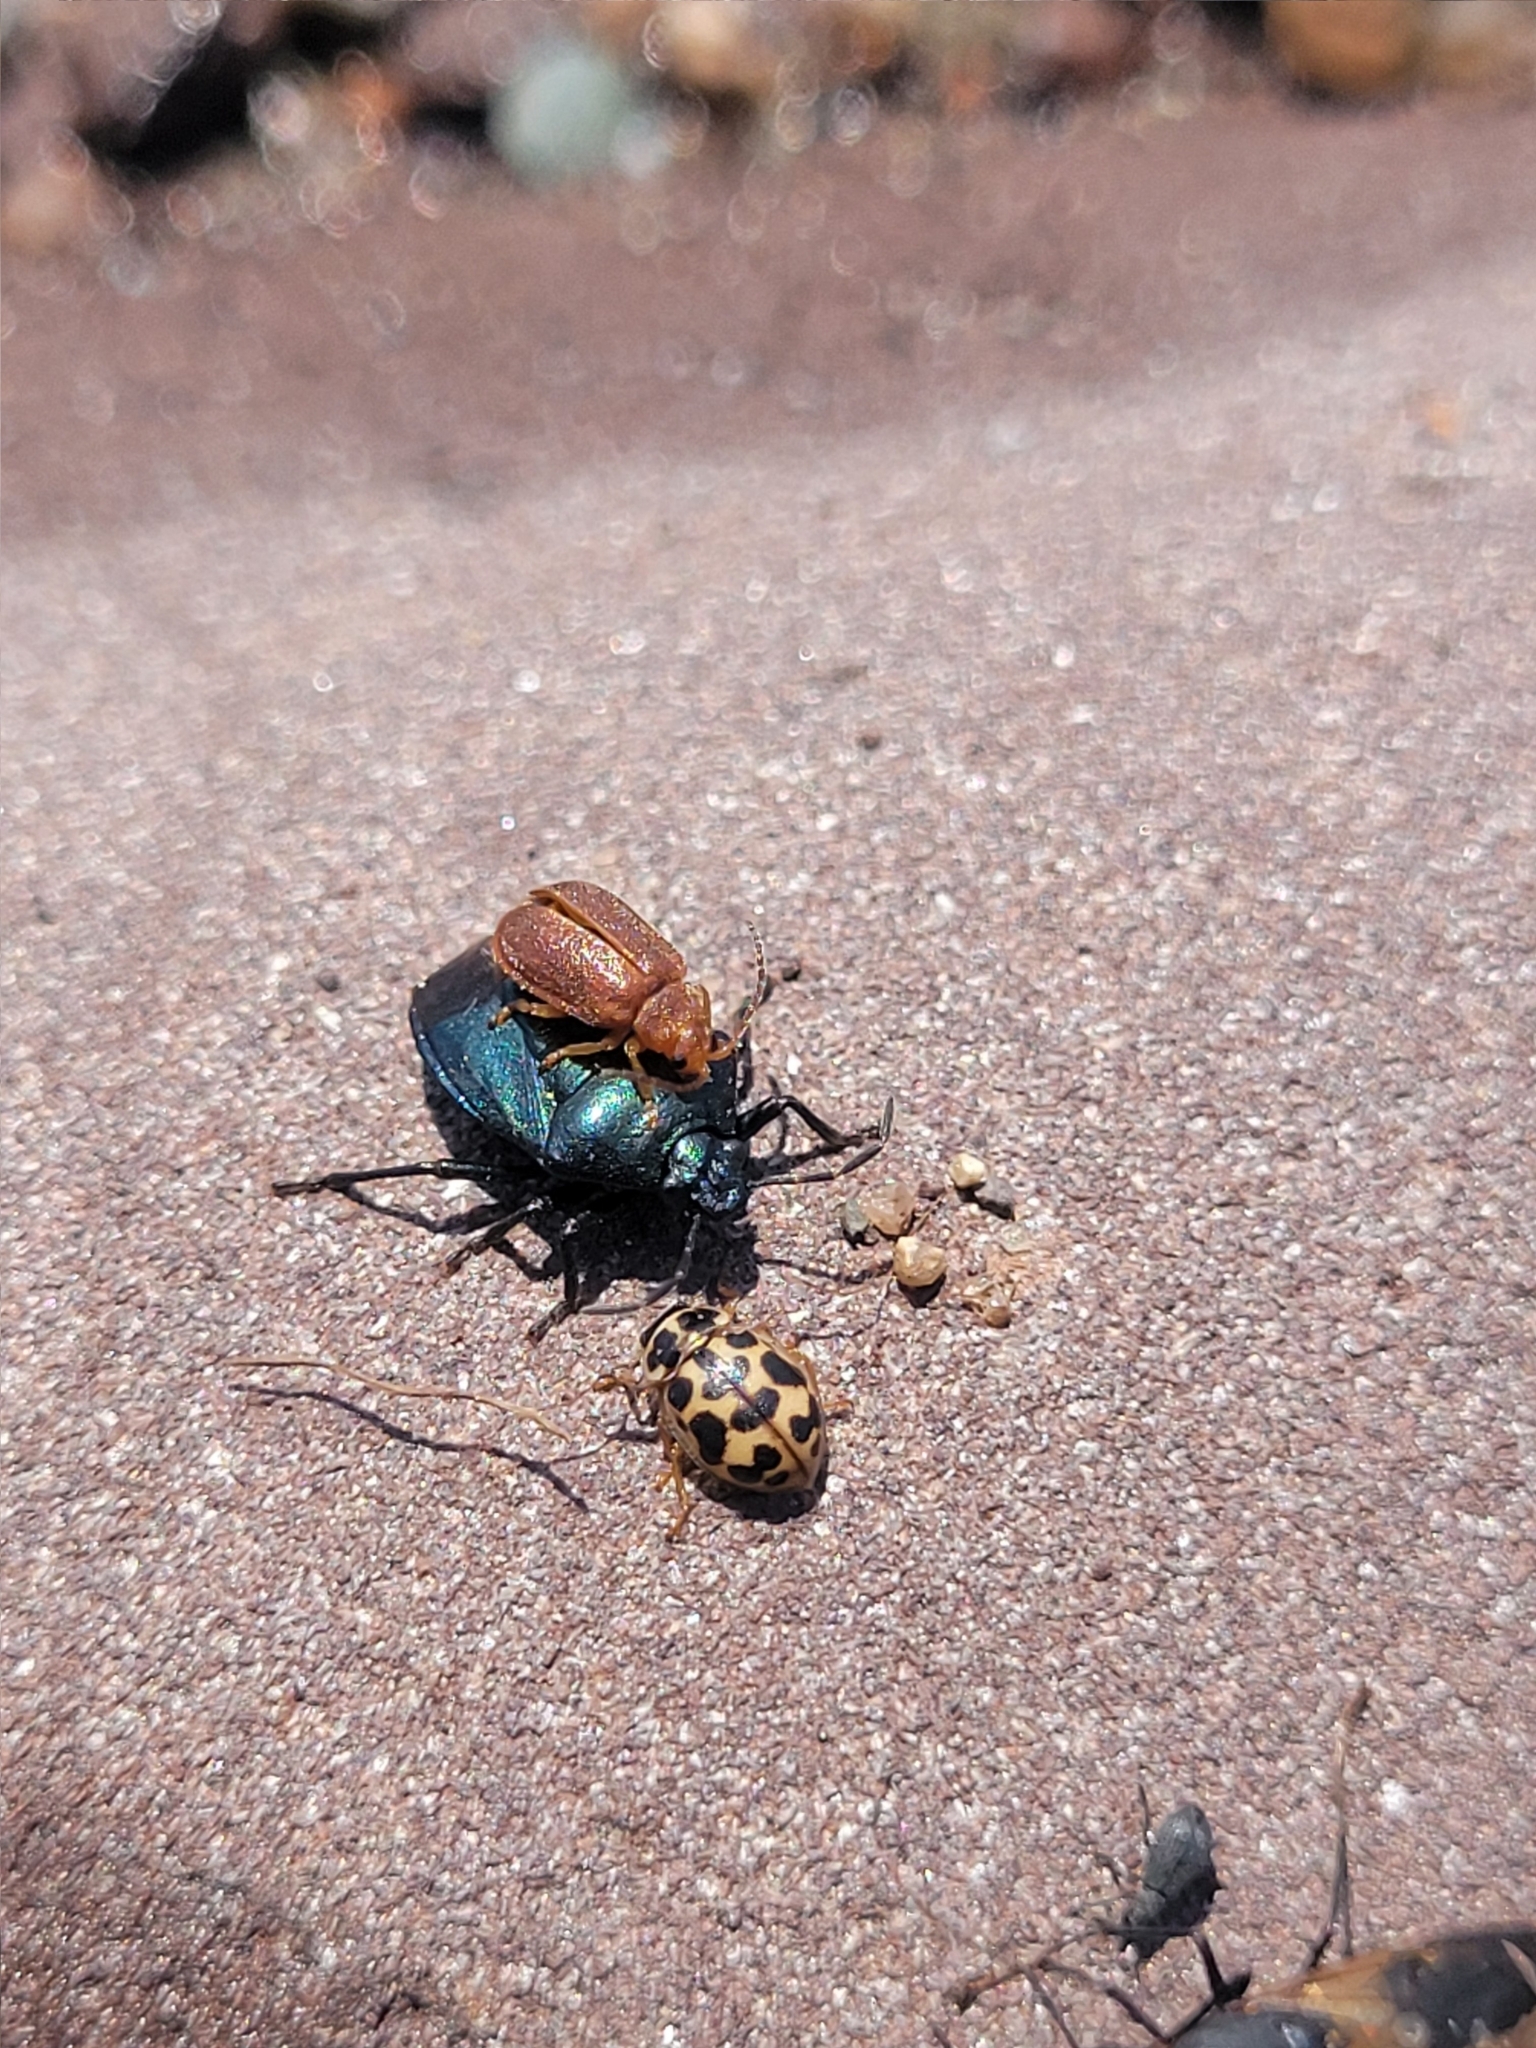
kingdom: Animalia
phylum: Arthropoda
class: Insecta
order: Hemiptera
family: Pentatomidae
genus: Zicrona
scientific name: Zicrona caerulea
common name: Blue shieldbug
